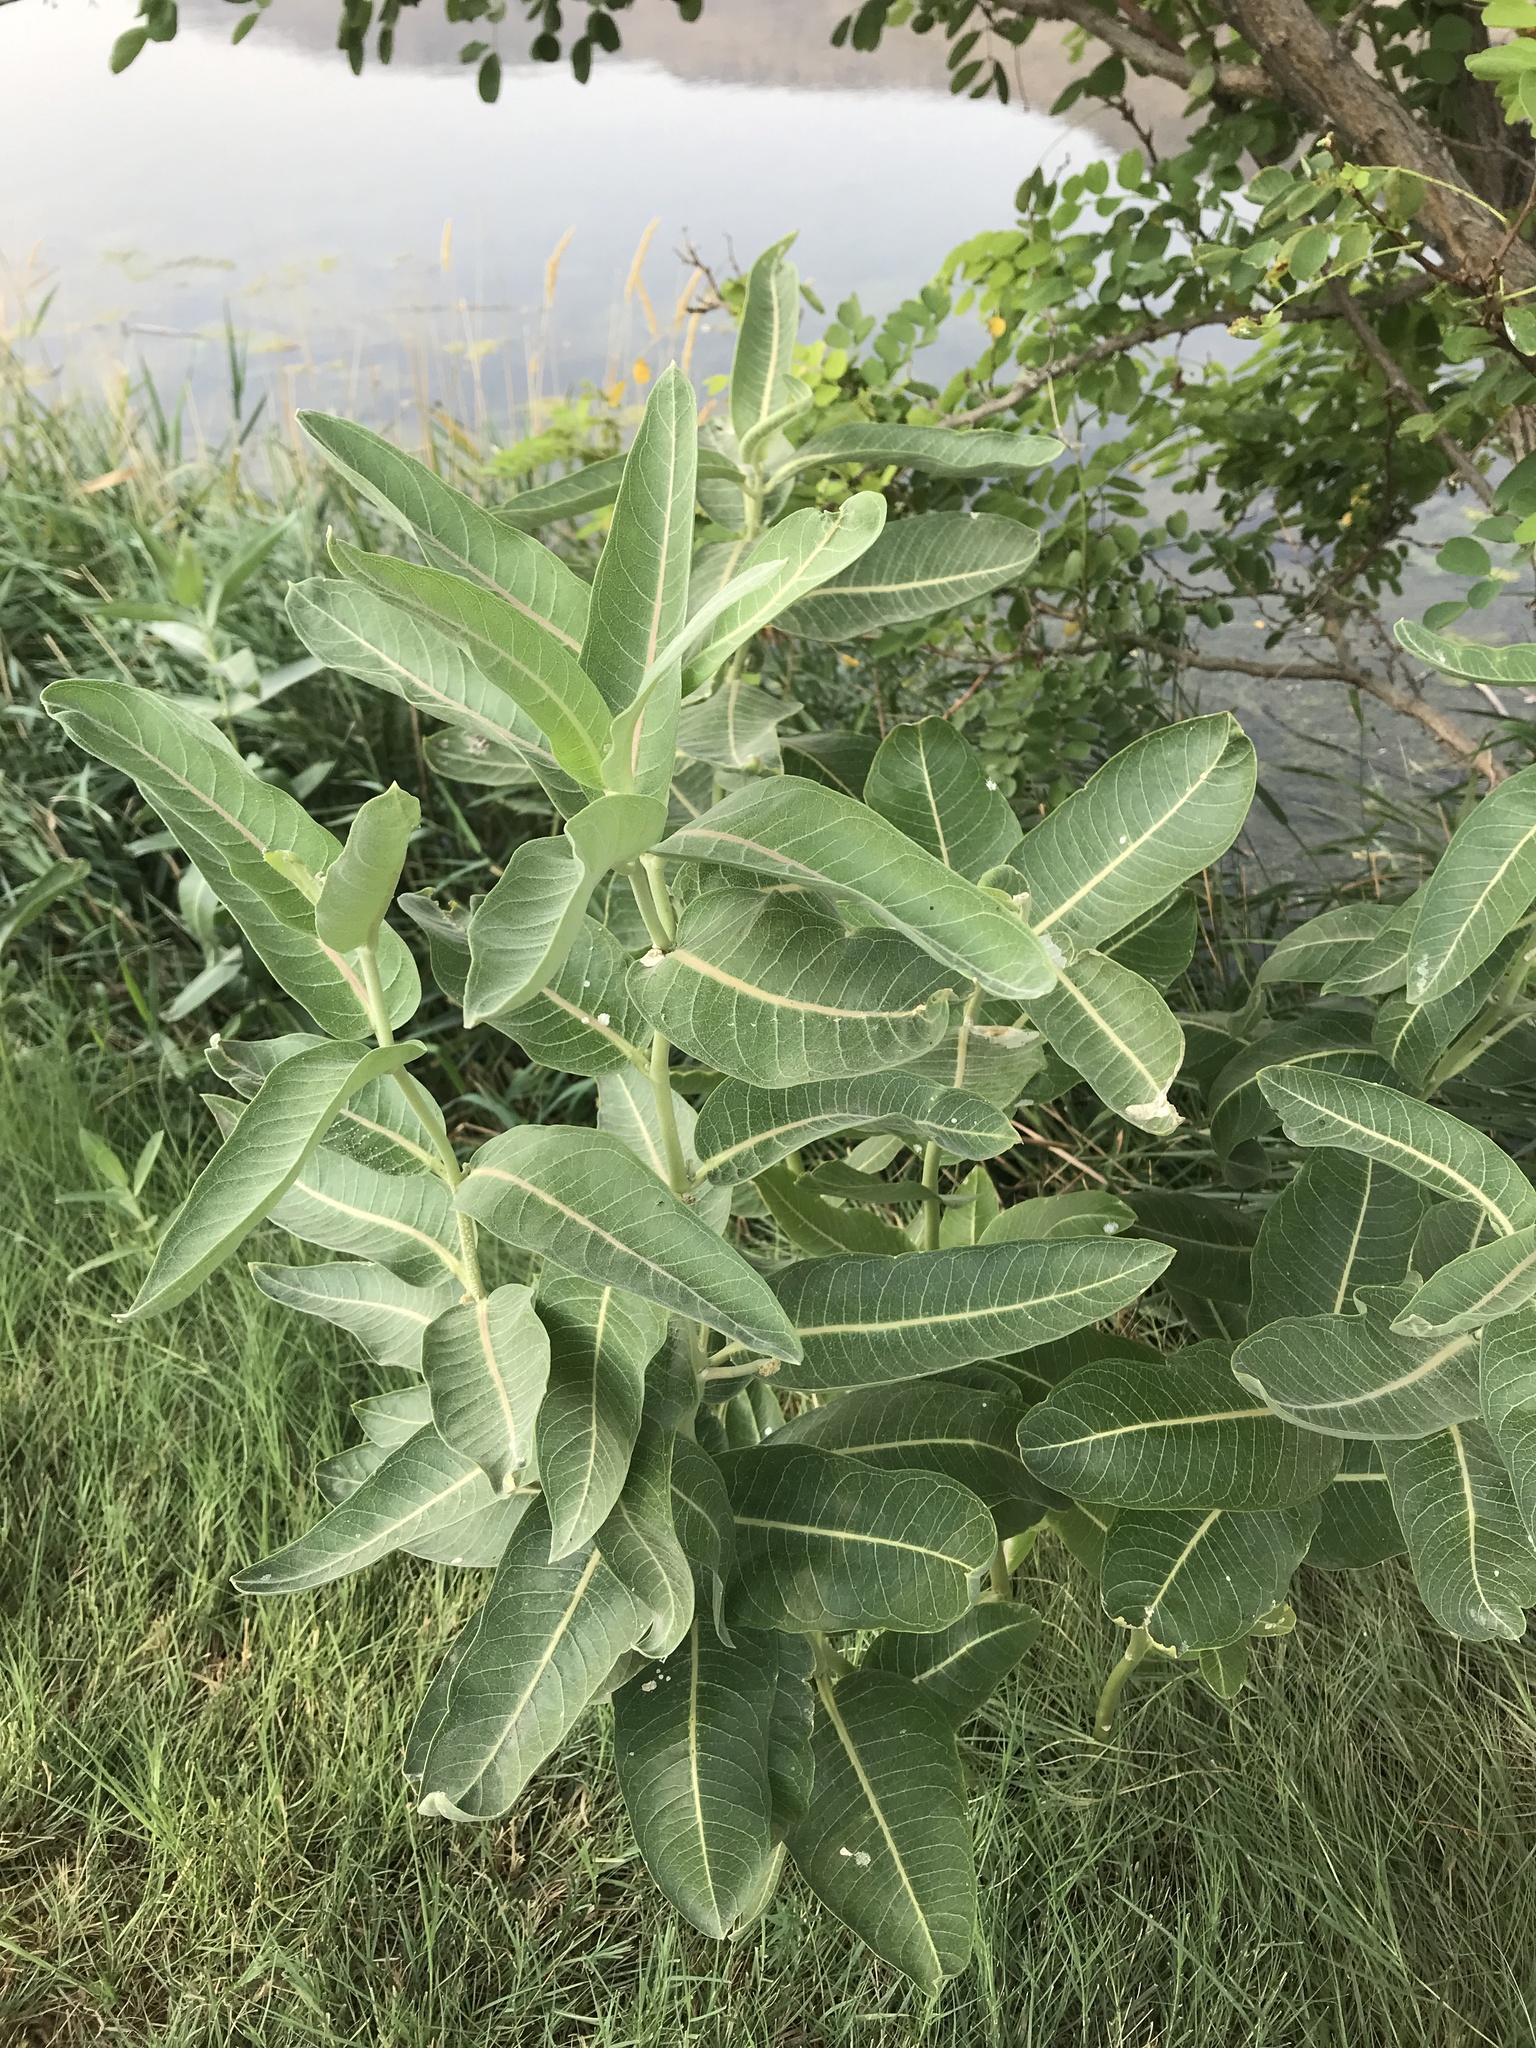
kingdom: Plantae
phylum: Tracheophyta
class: Magnoliopsida
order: Gentianales
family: Apocynaceae
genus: Asclepias
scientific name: Asclepias speciosa
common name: Showy milkweed
